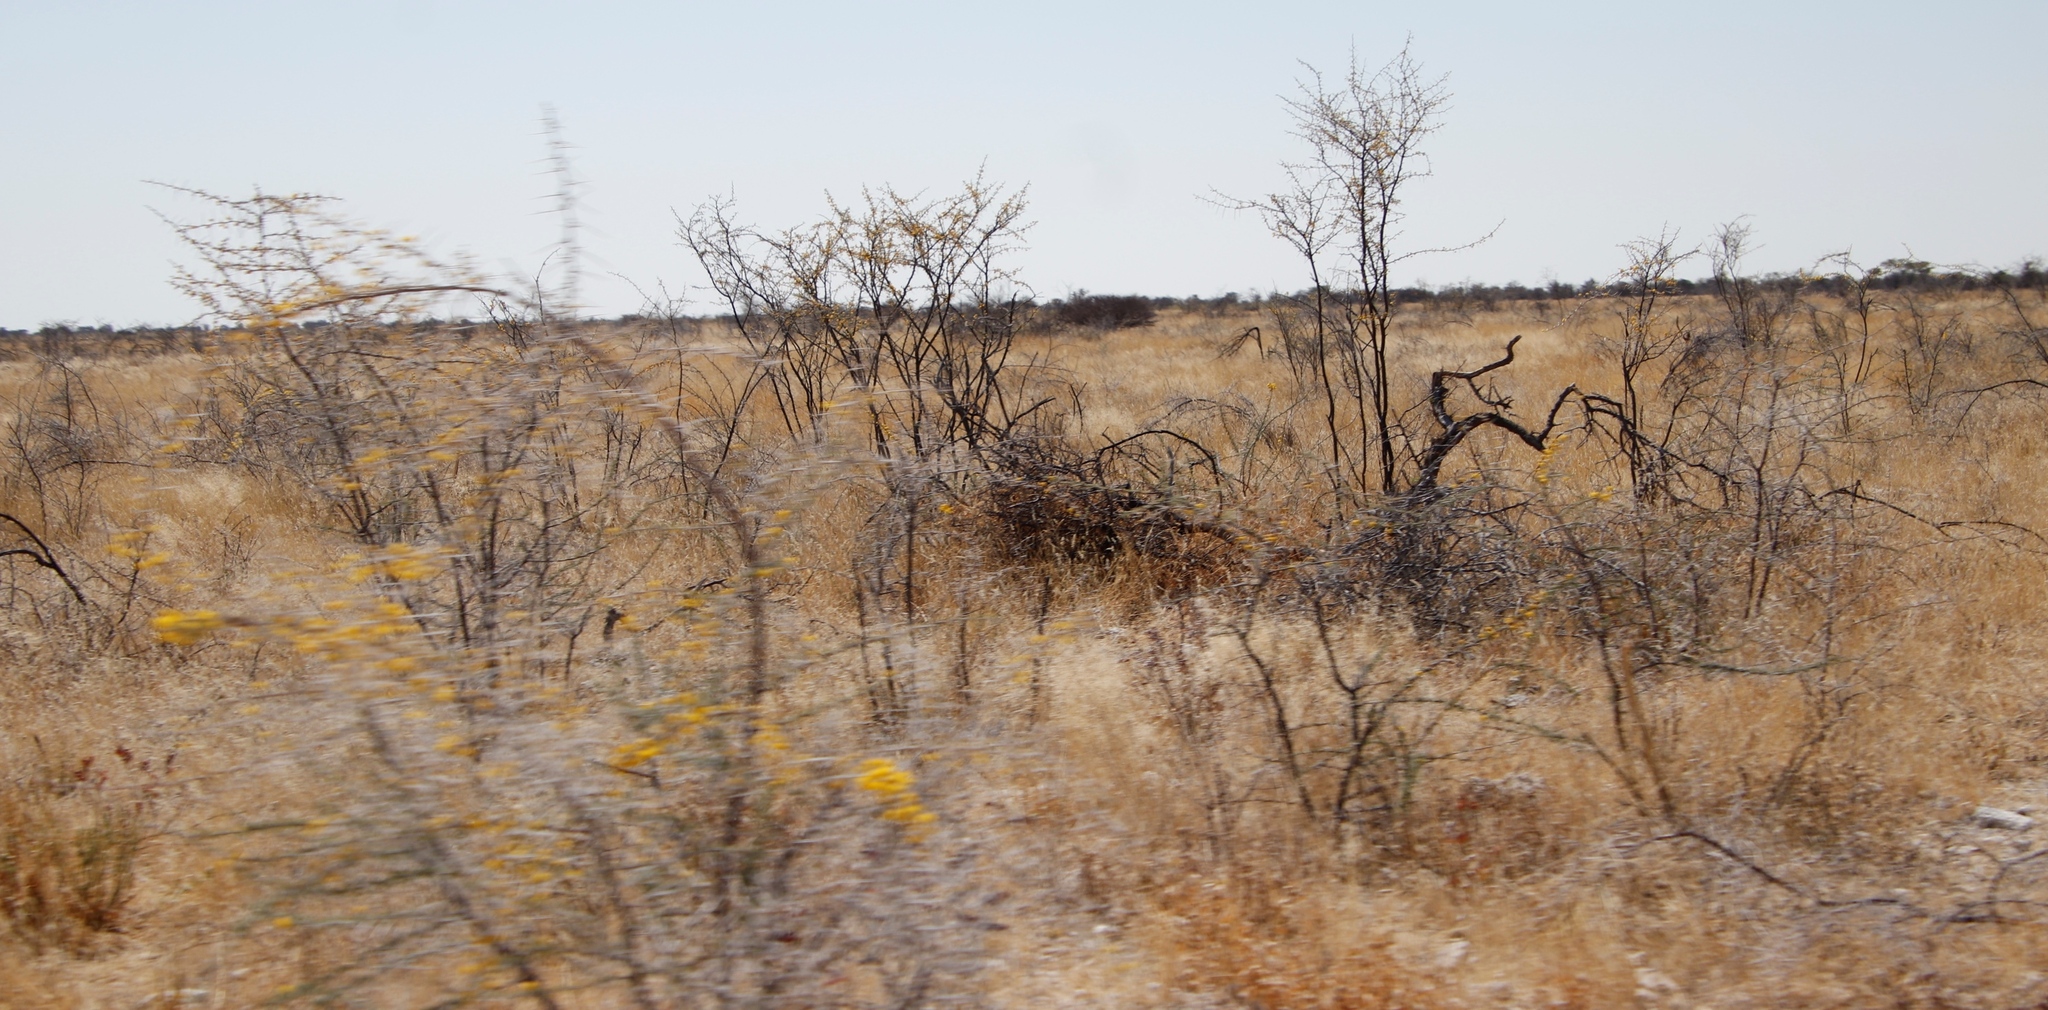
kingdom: Plantae
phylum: Tracheophyta
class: Magnoliopsida
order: Fabales
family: Fabaceae
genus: Vachellia
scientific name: Vachellia nebrownii
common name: Water acacia
